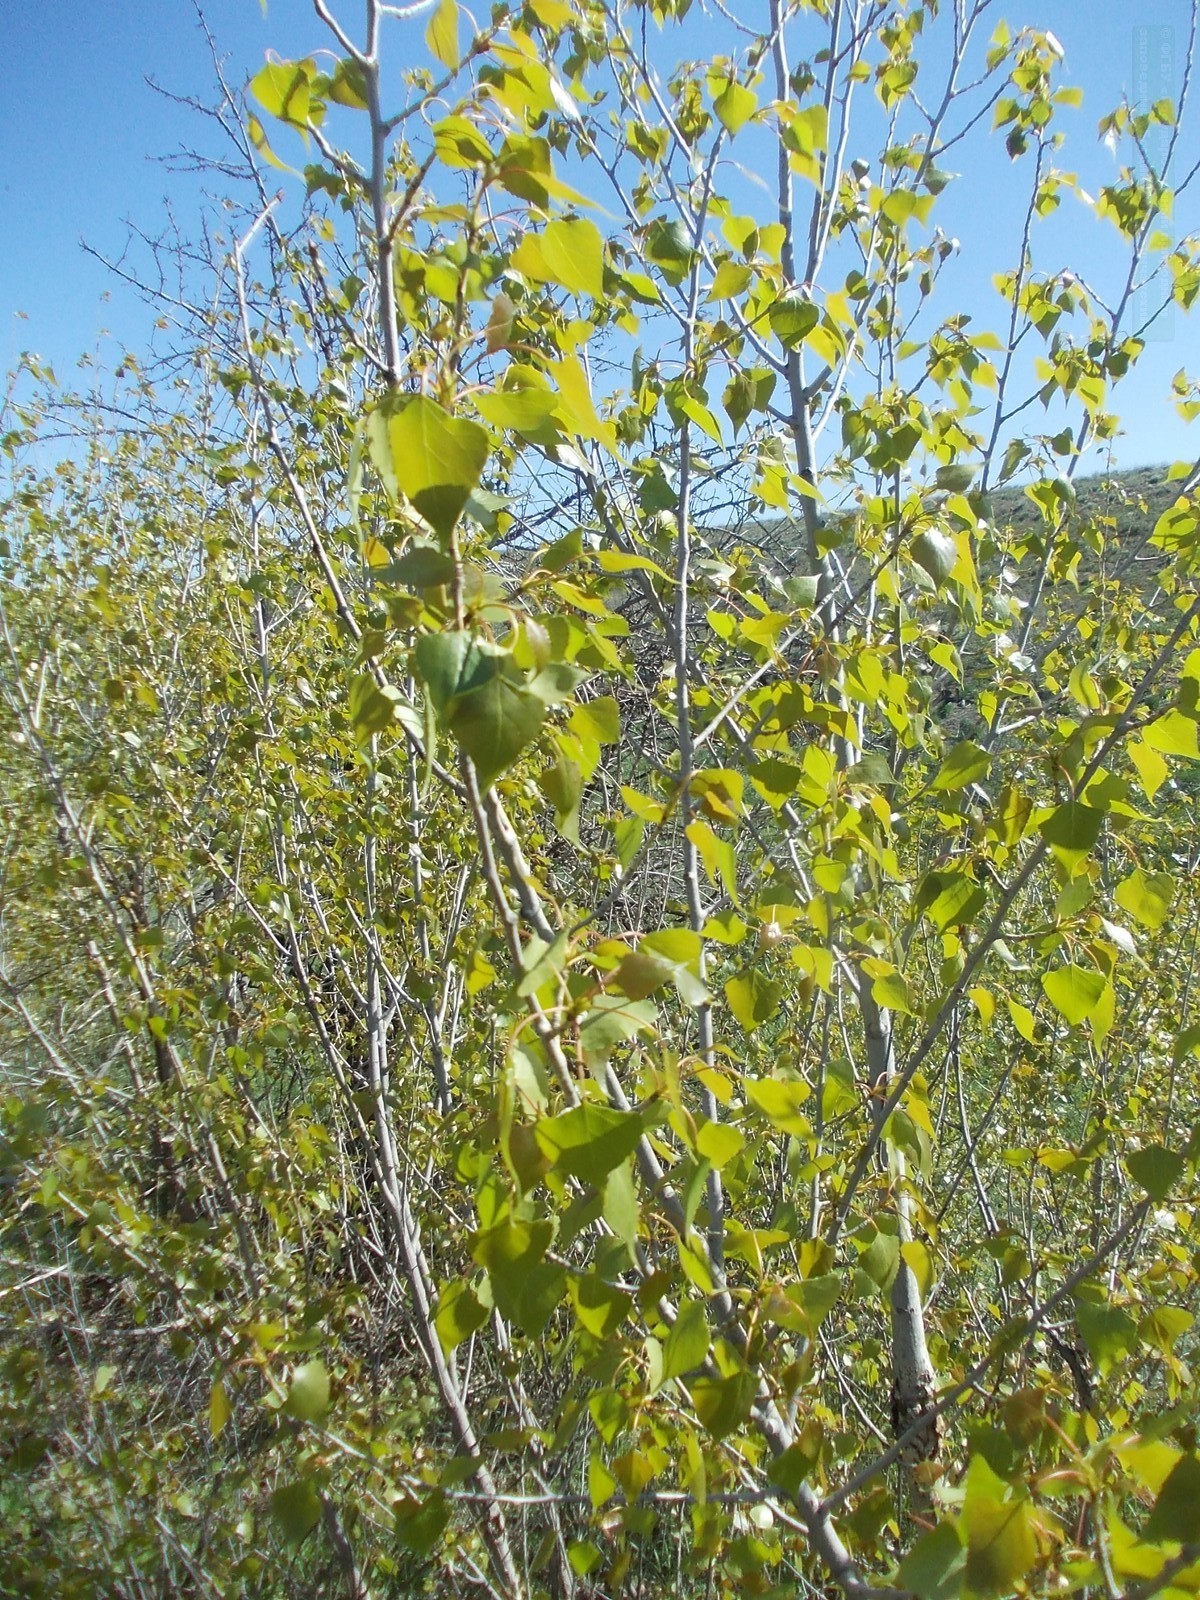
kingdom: Plantae
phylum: Tracheophyta
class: Magnoliopsida
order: Malpighiales
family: Salicaceae
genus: Populus
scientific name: Populus nigra
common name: Black poplar
